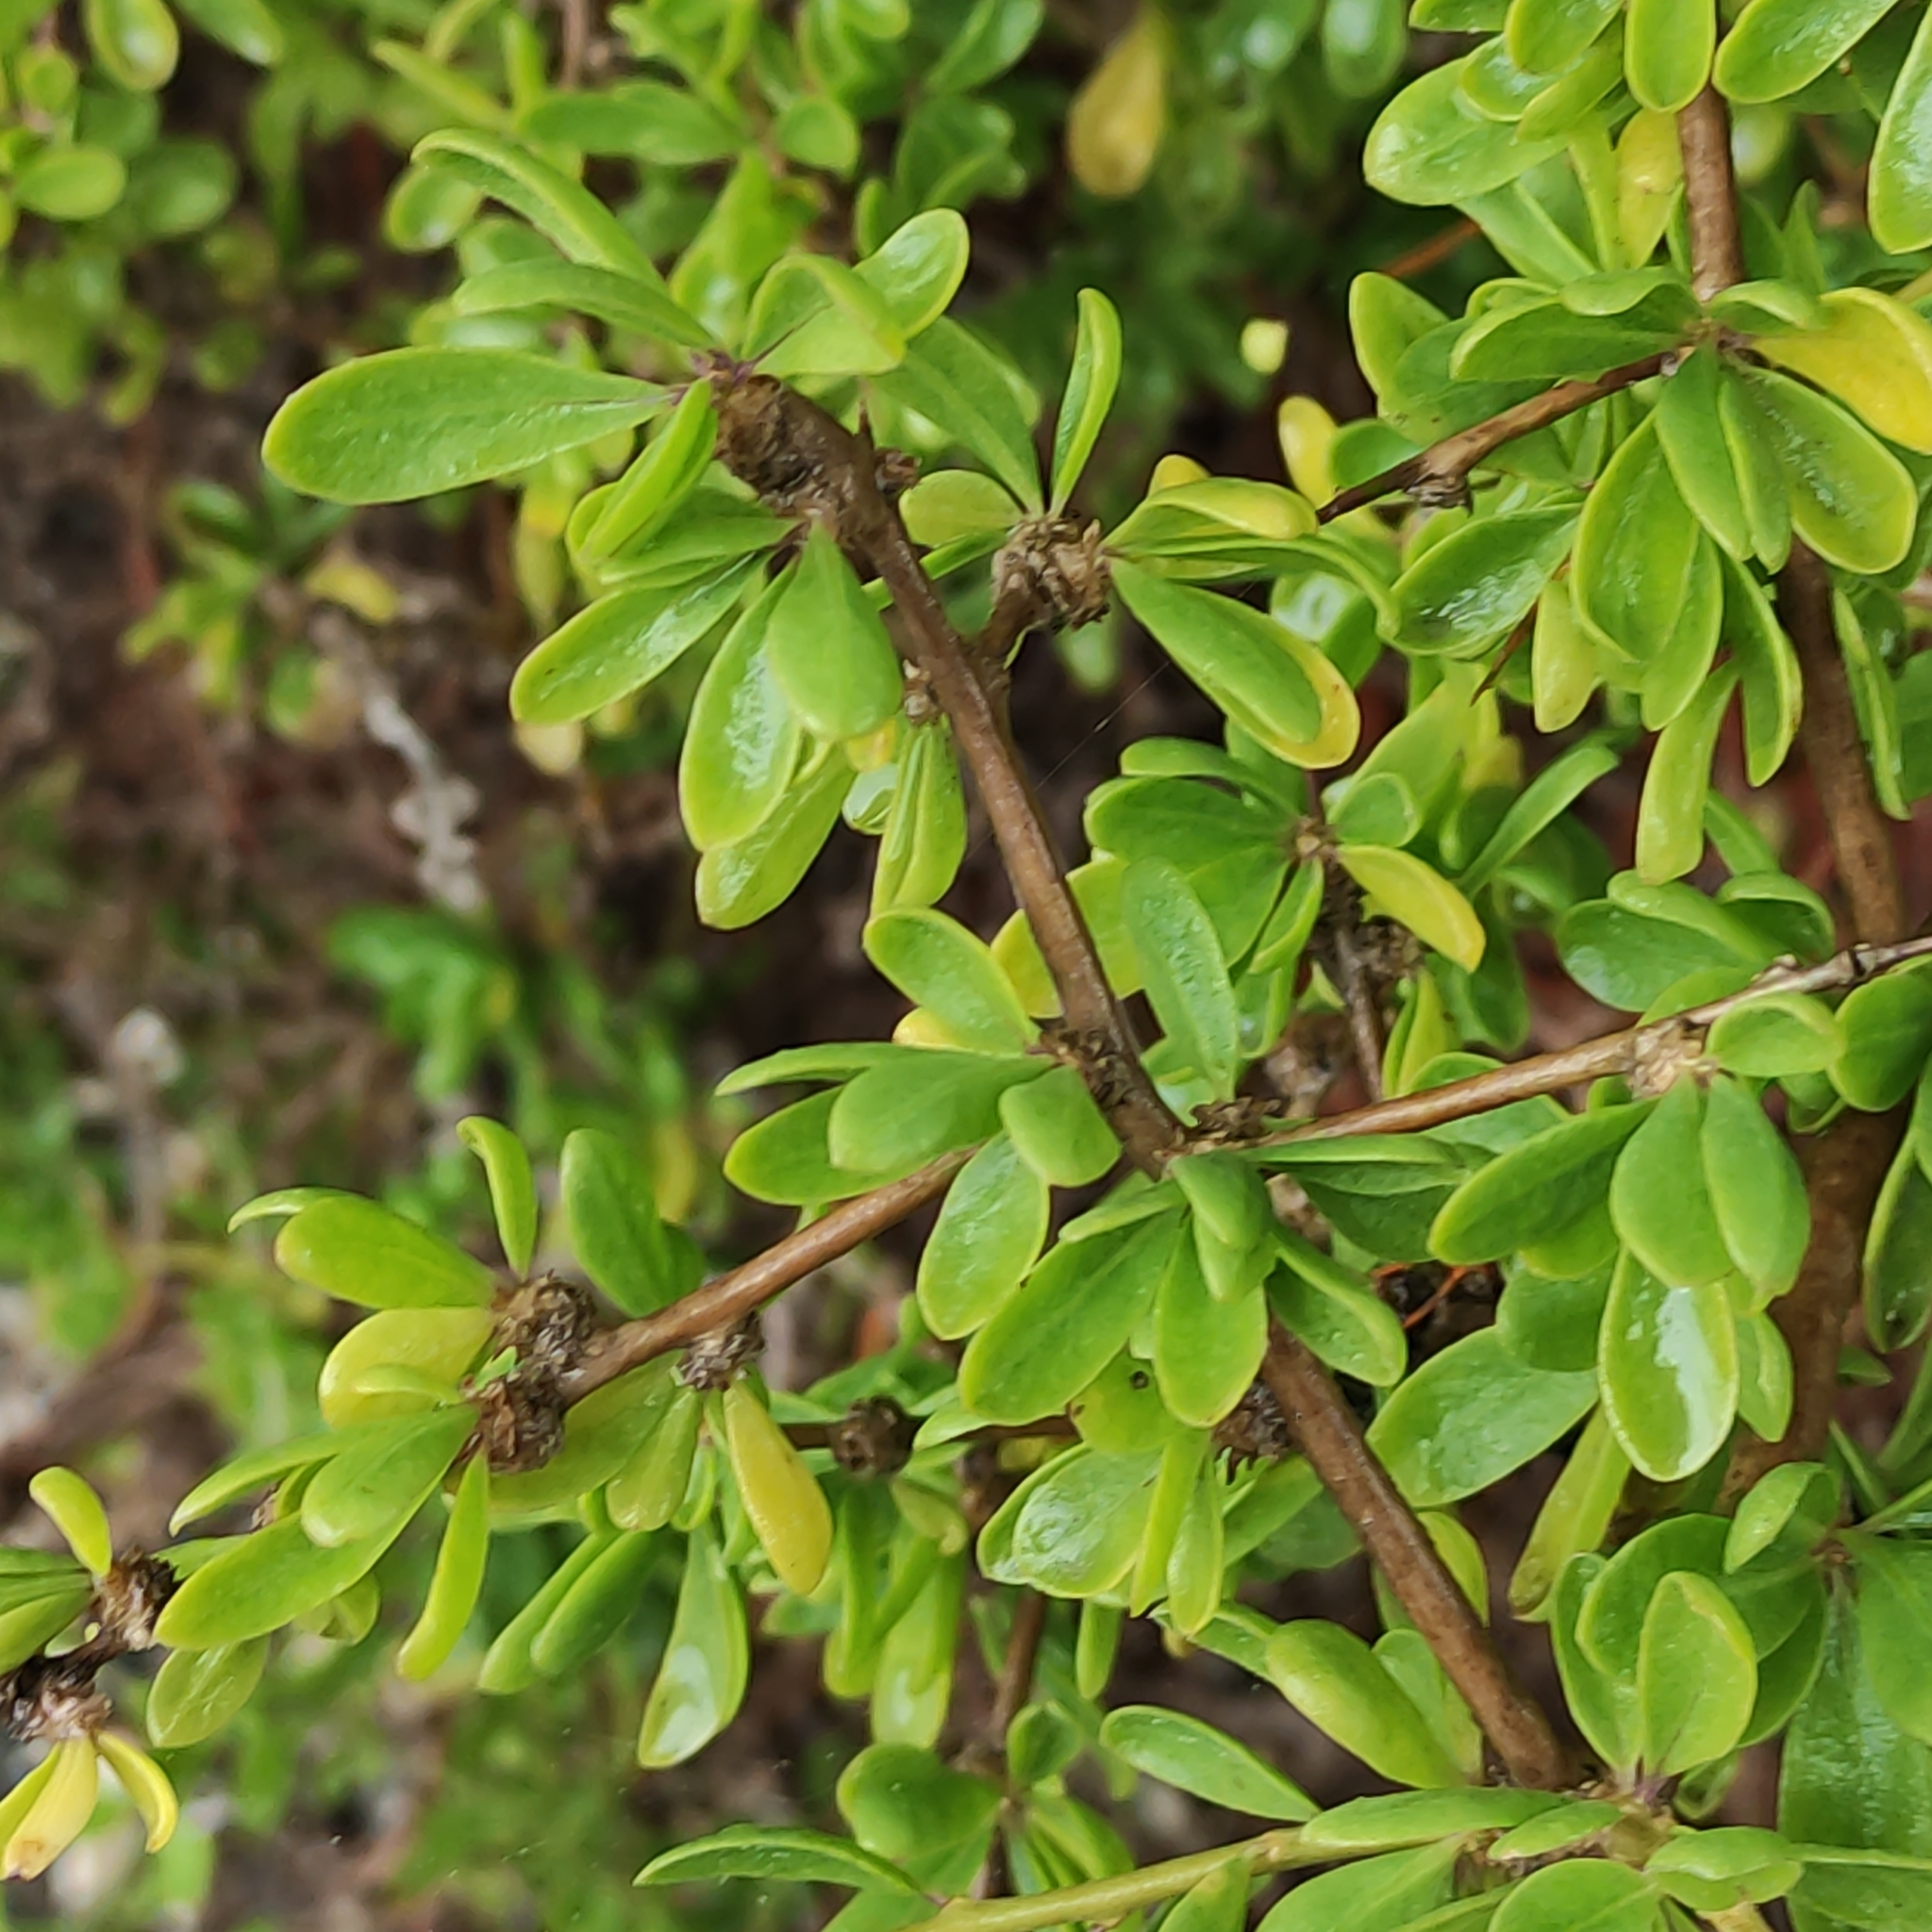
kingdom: Plantae
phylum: Tracheophyta
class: Magnoliopsida
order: Solanales
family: Solanaceae
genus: Lycium
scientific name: Lycium ferocissimum
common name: African boxthorn
